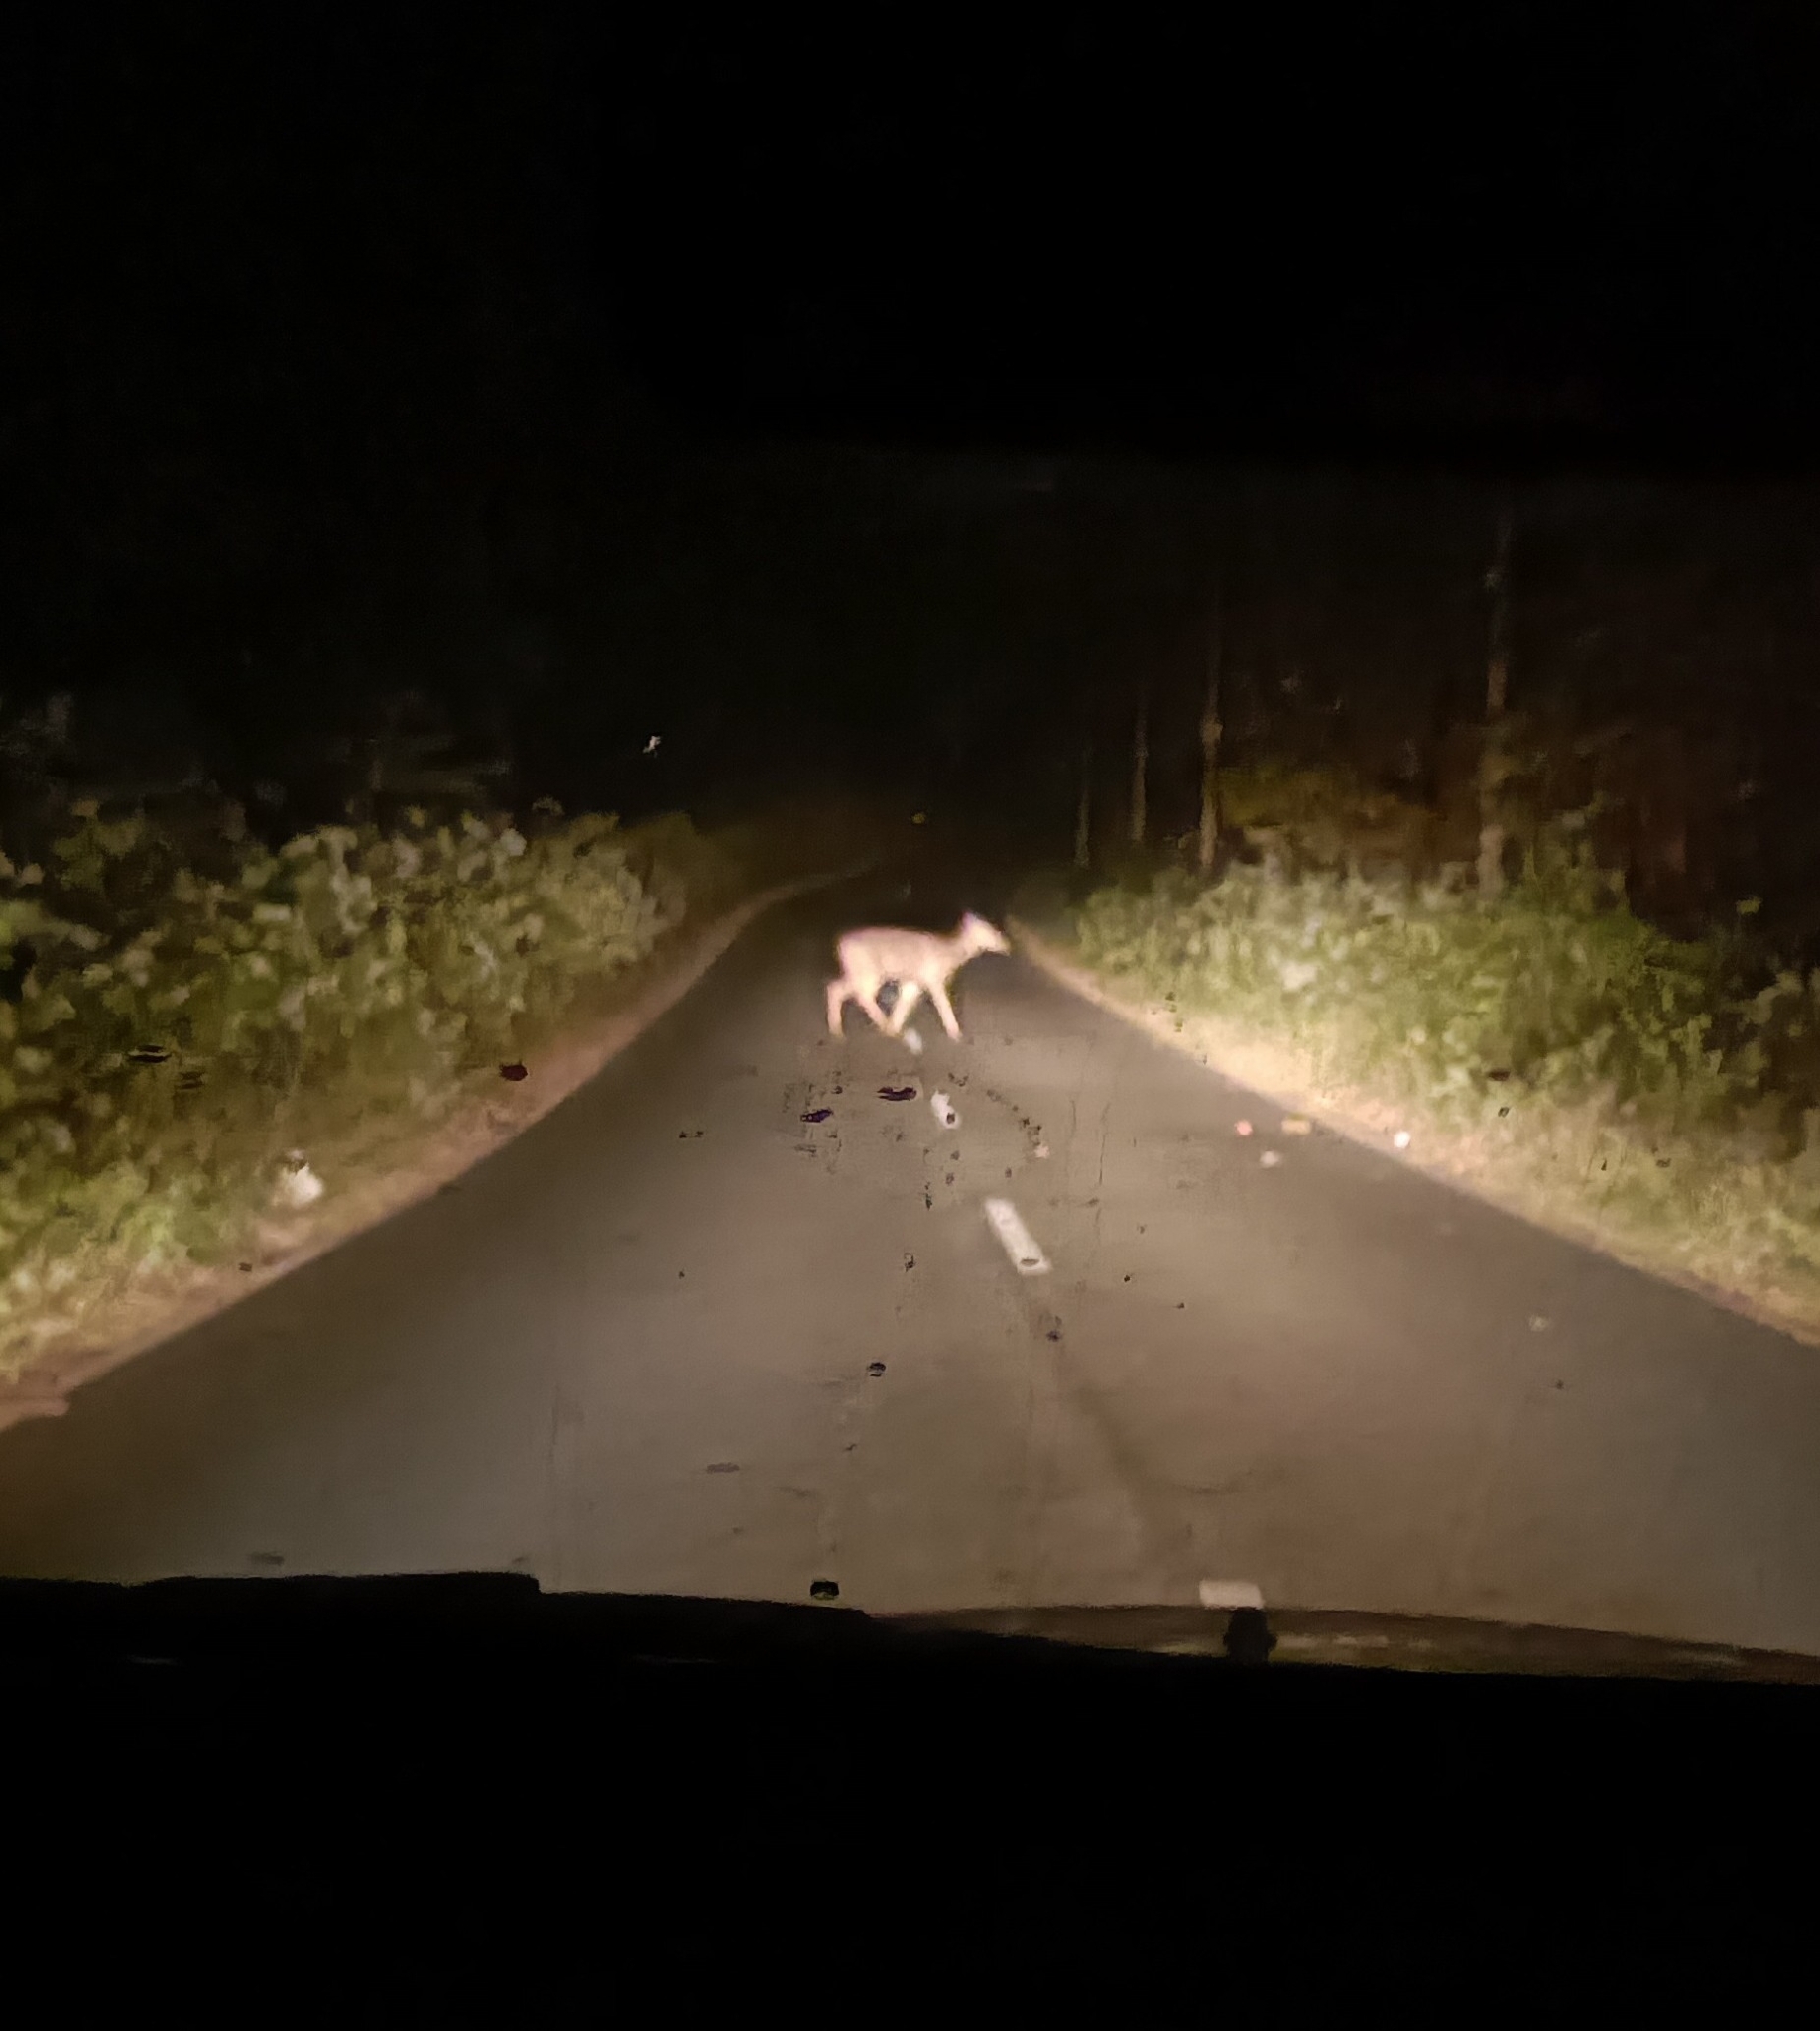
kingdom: Animalia
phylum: Chordata
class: Mammalia
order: Artiodactyla
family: Cervidae
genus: Rusa
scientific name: Rusa unicolor
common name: Sambar
